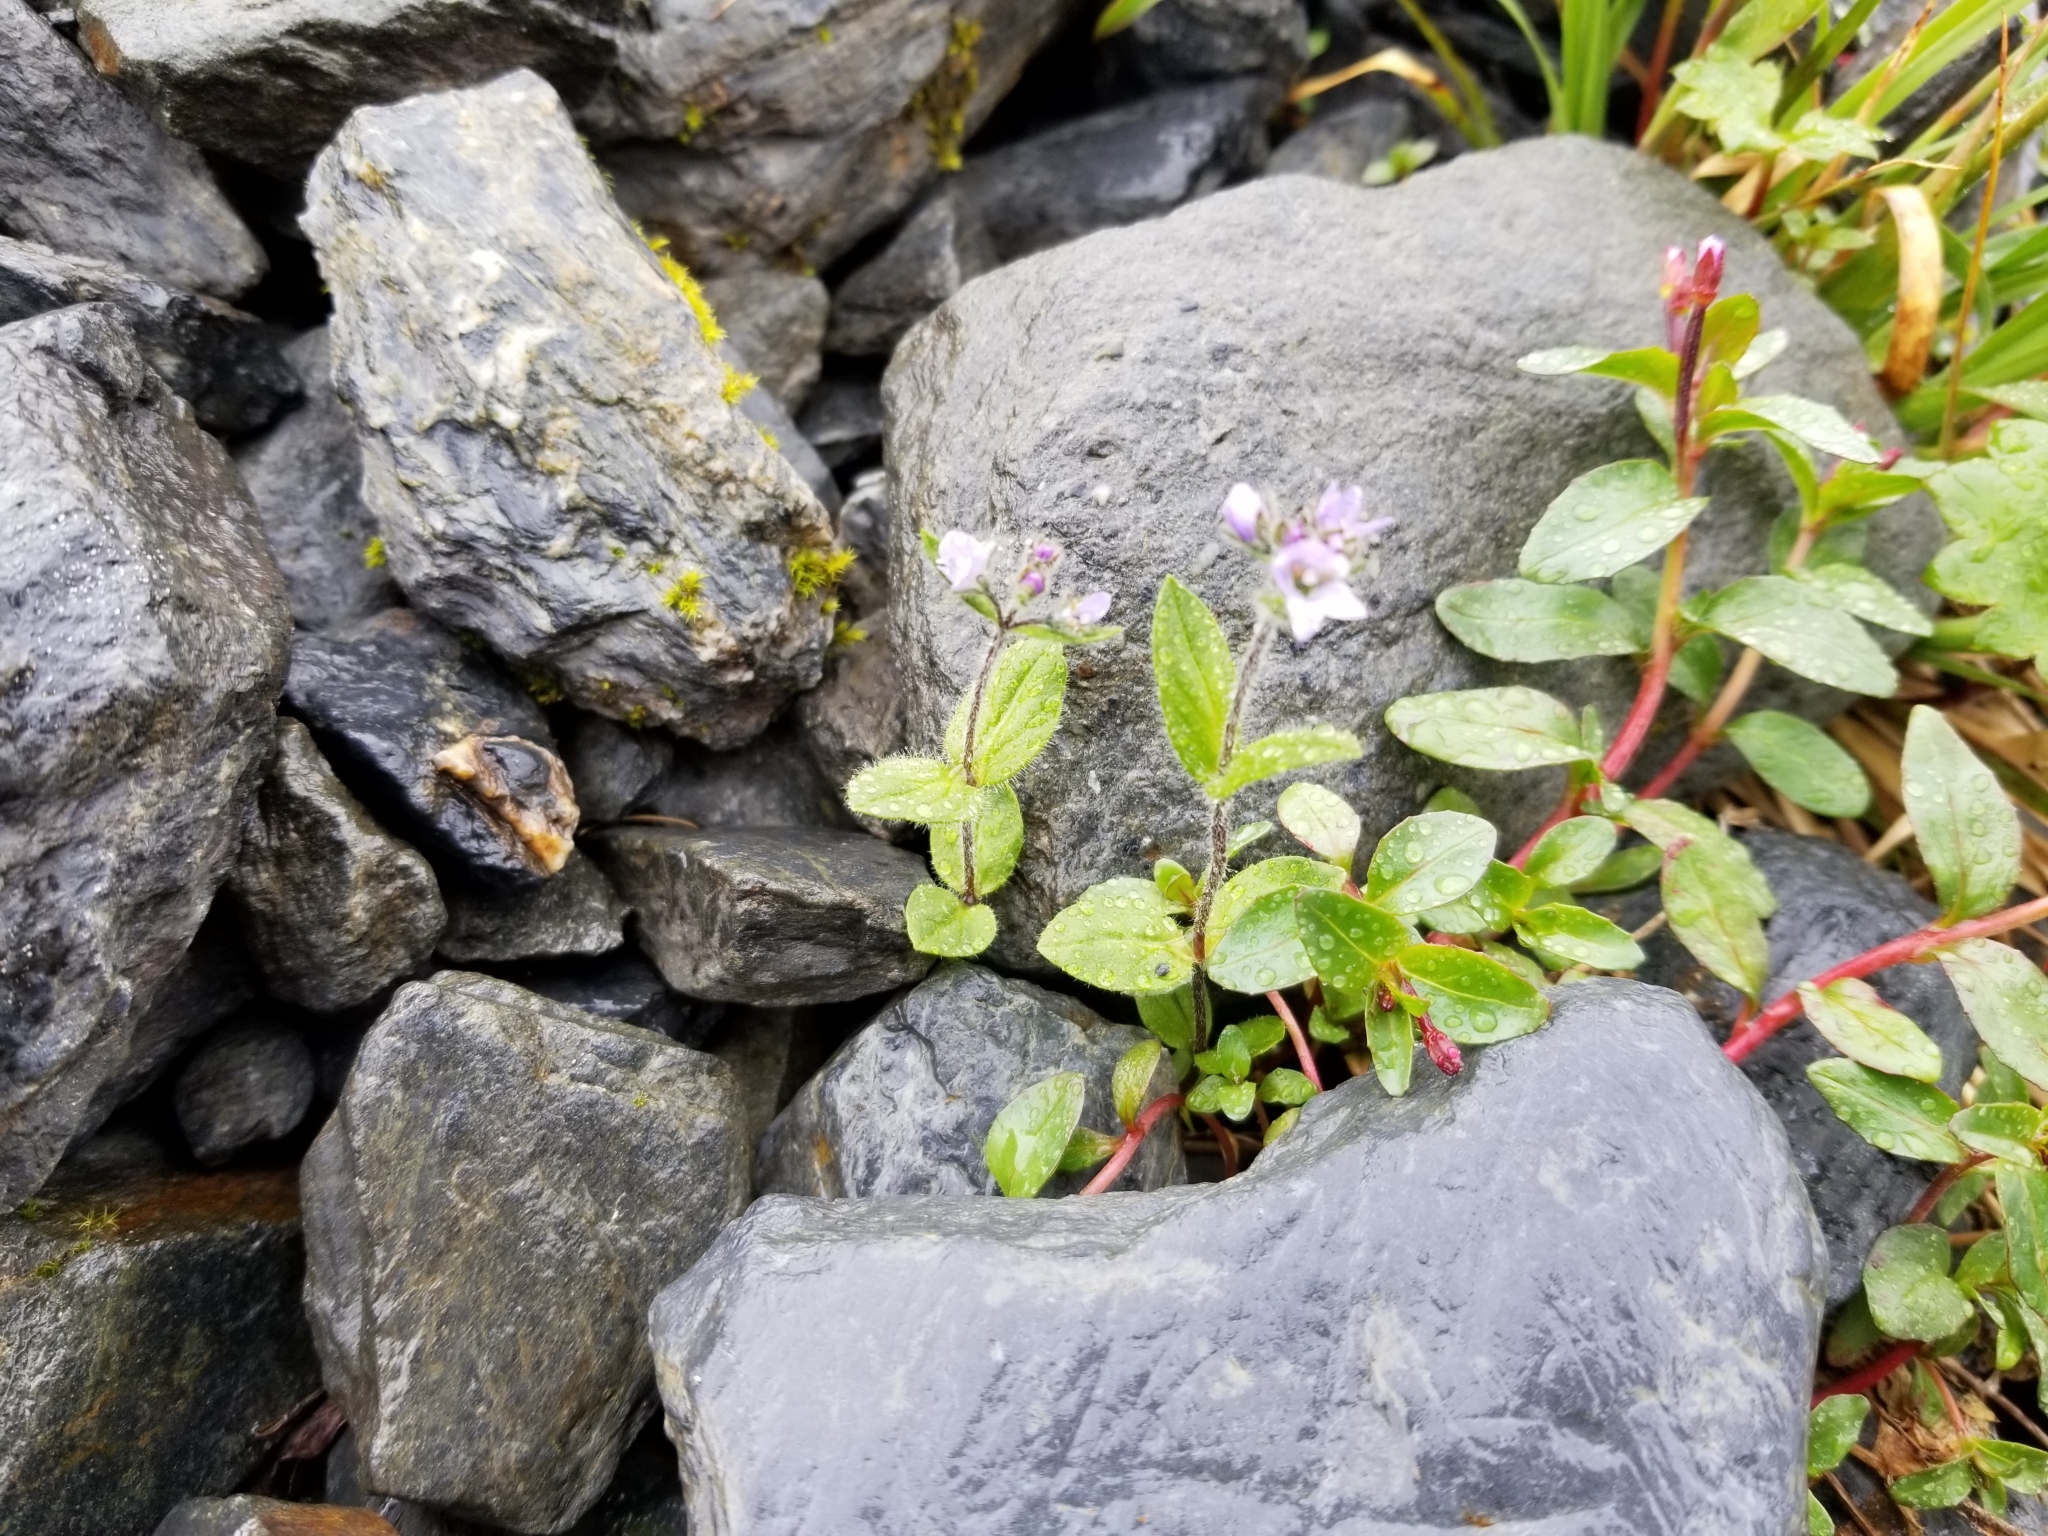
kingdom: Plantae
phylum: Tracheophyta
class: Magnoliopsida
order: Lamiales
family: Plantaginaceae
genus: Veronica
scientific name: Veronica wormskjoldii
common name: American alpine speedwell
